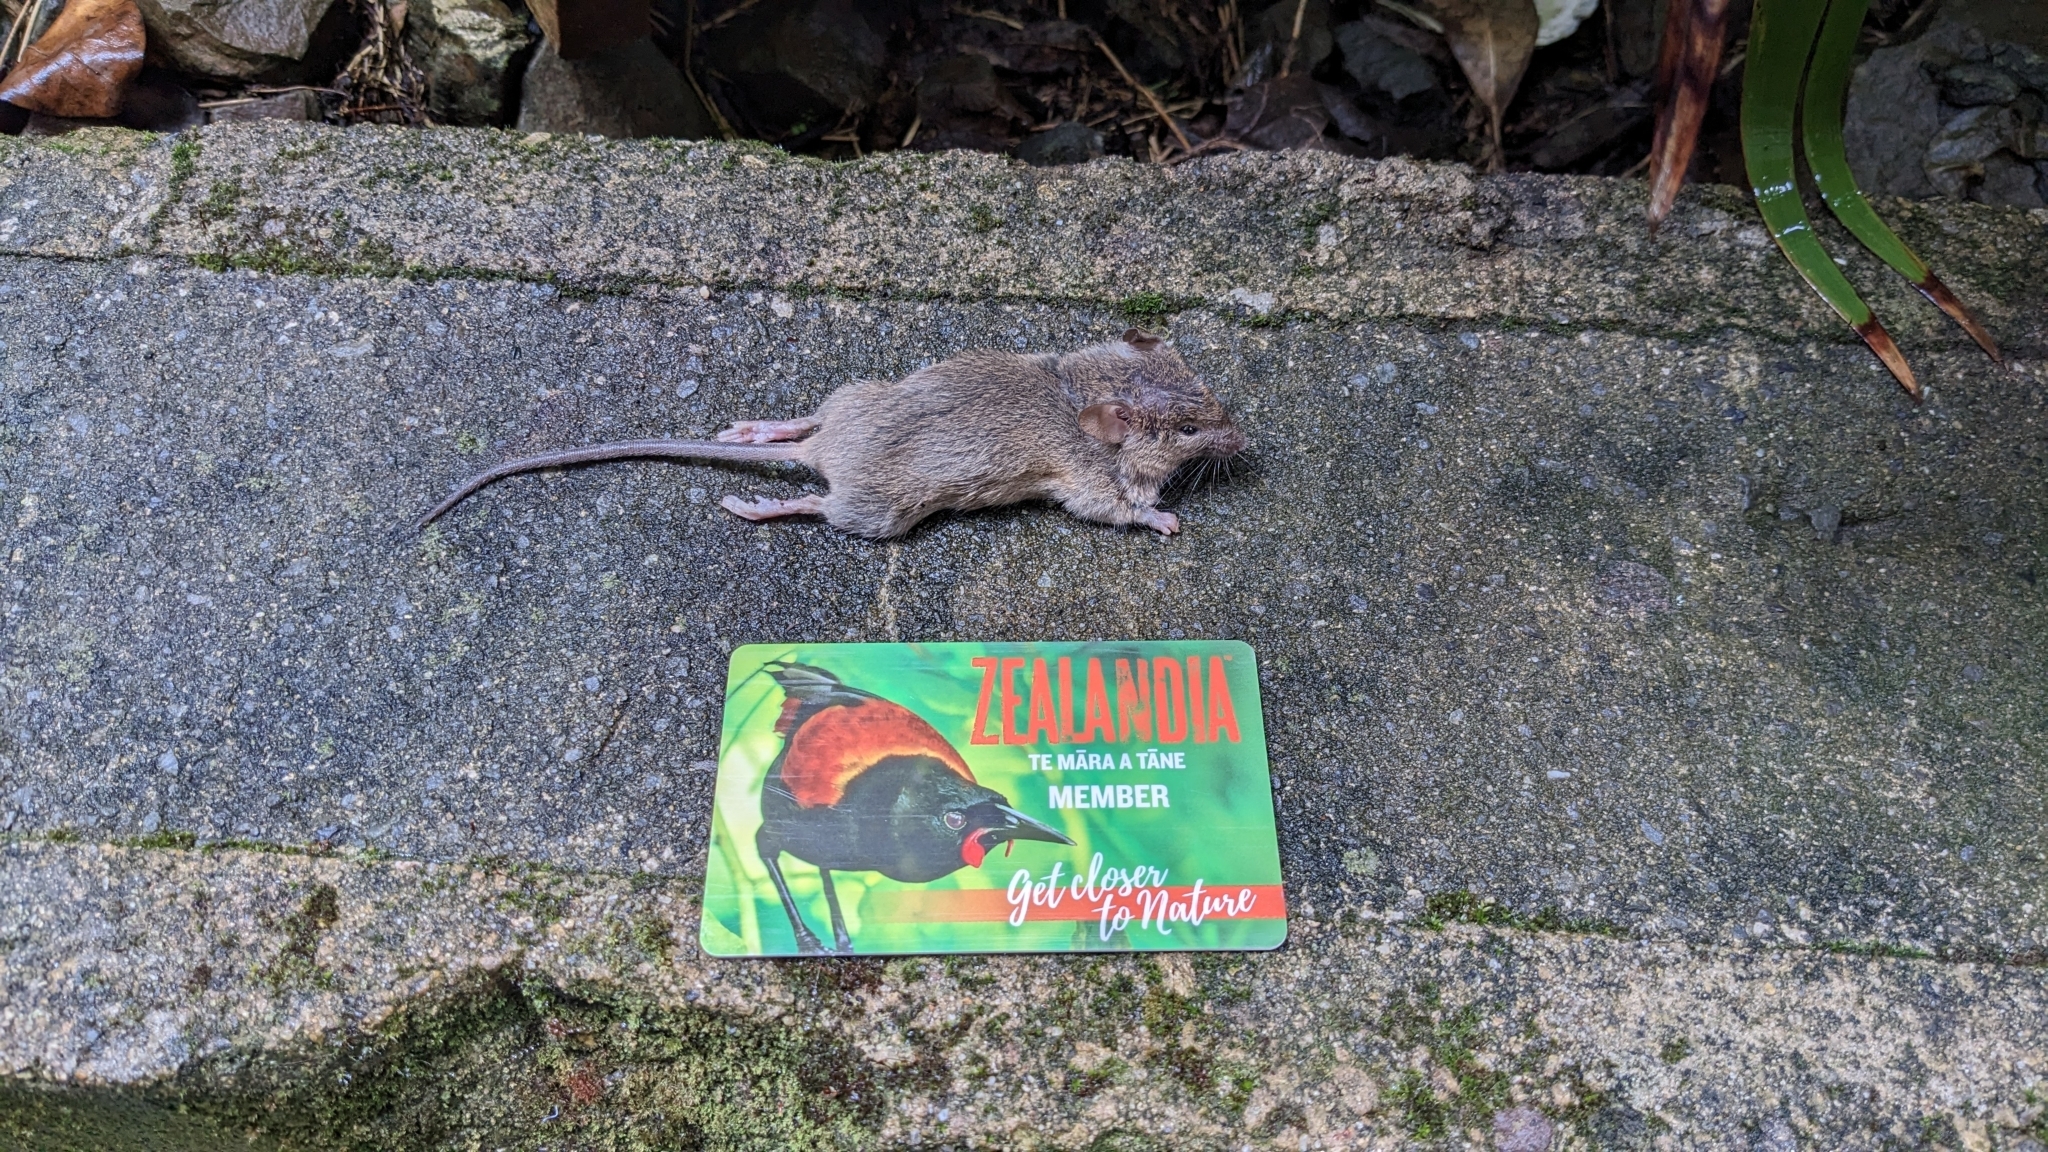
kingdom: Animalia
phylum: Chordata
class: Mammalia
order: Rodentia
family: Muridae
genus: Mus
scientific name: Mus musculus
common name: House mouse
